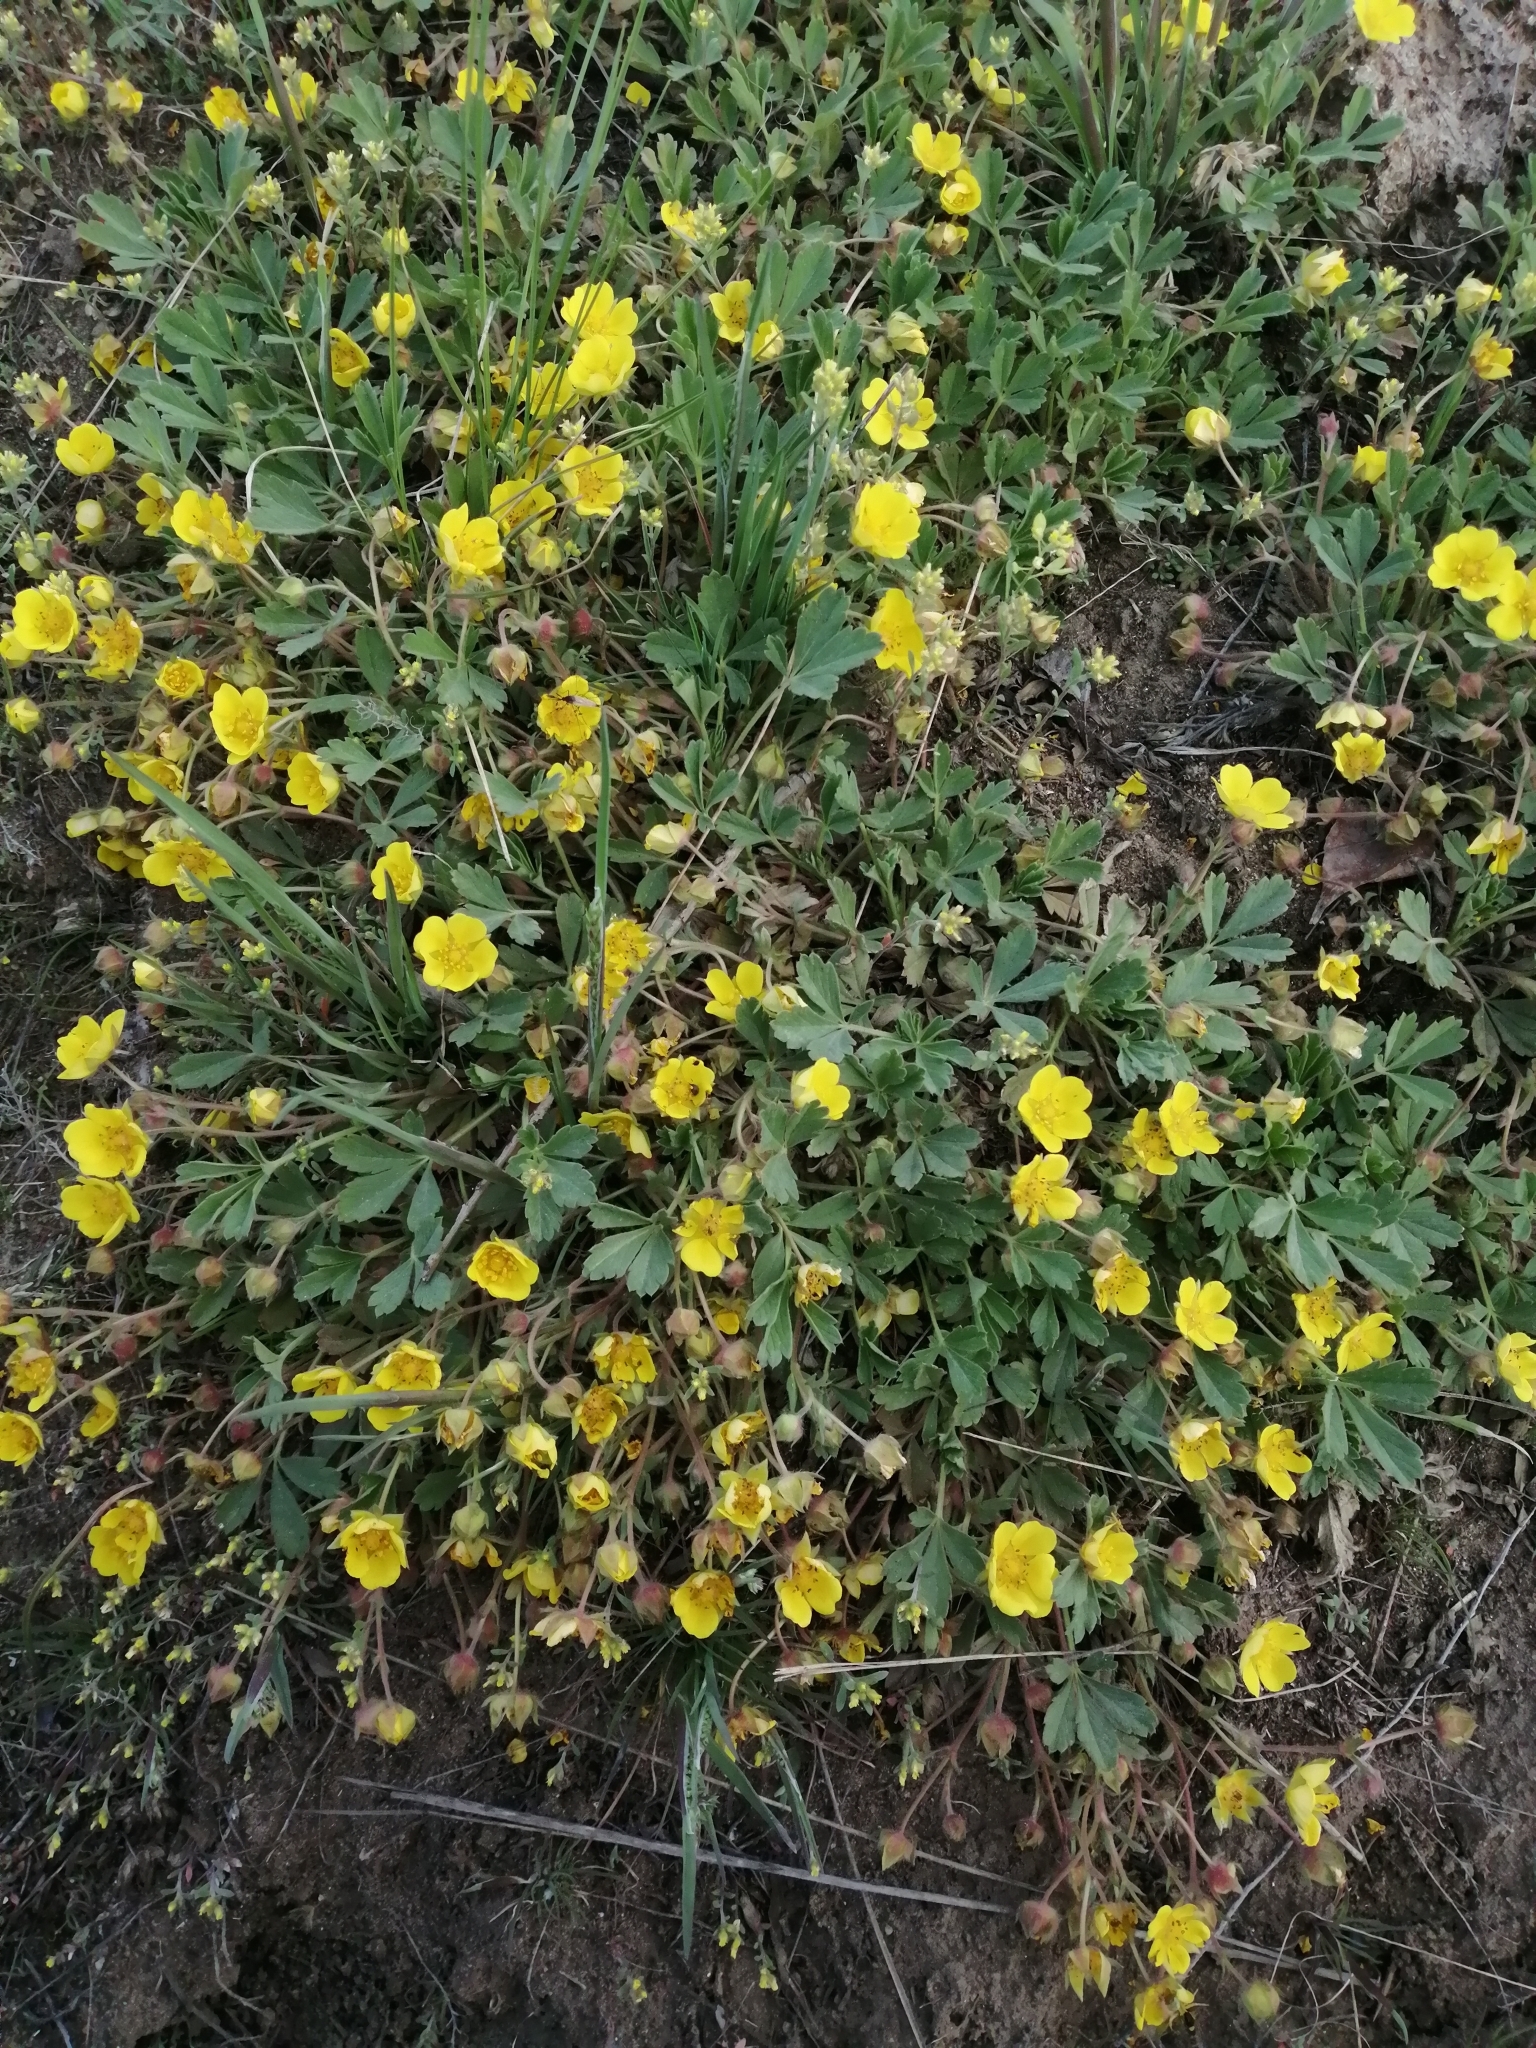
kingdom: Plantae
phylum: Tracheophyta
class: Magnoliopsida
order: Rosales
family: Rosaceae
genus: Potentilla
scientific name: Potentilla incana
